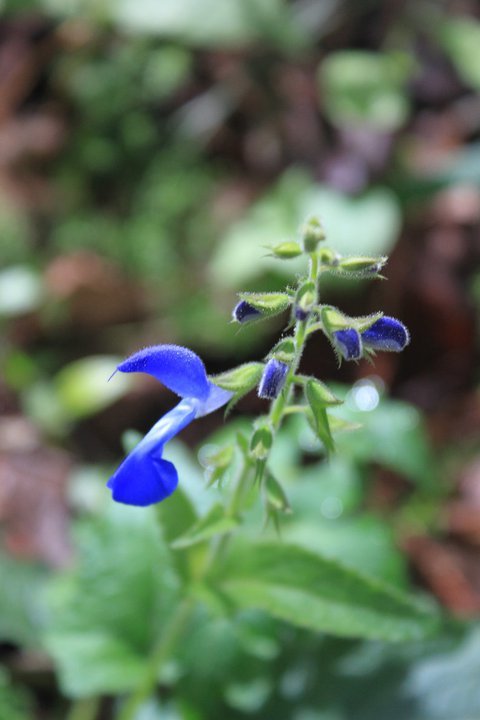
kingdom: Plantae
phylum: Tracheophyta
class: Magnoliopsida
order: Lamiales
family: Lamiaceae
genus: Salvia
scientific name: Salvia patens
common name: Blue sage
